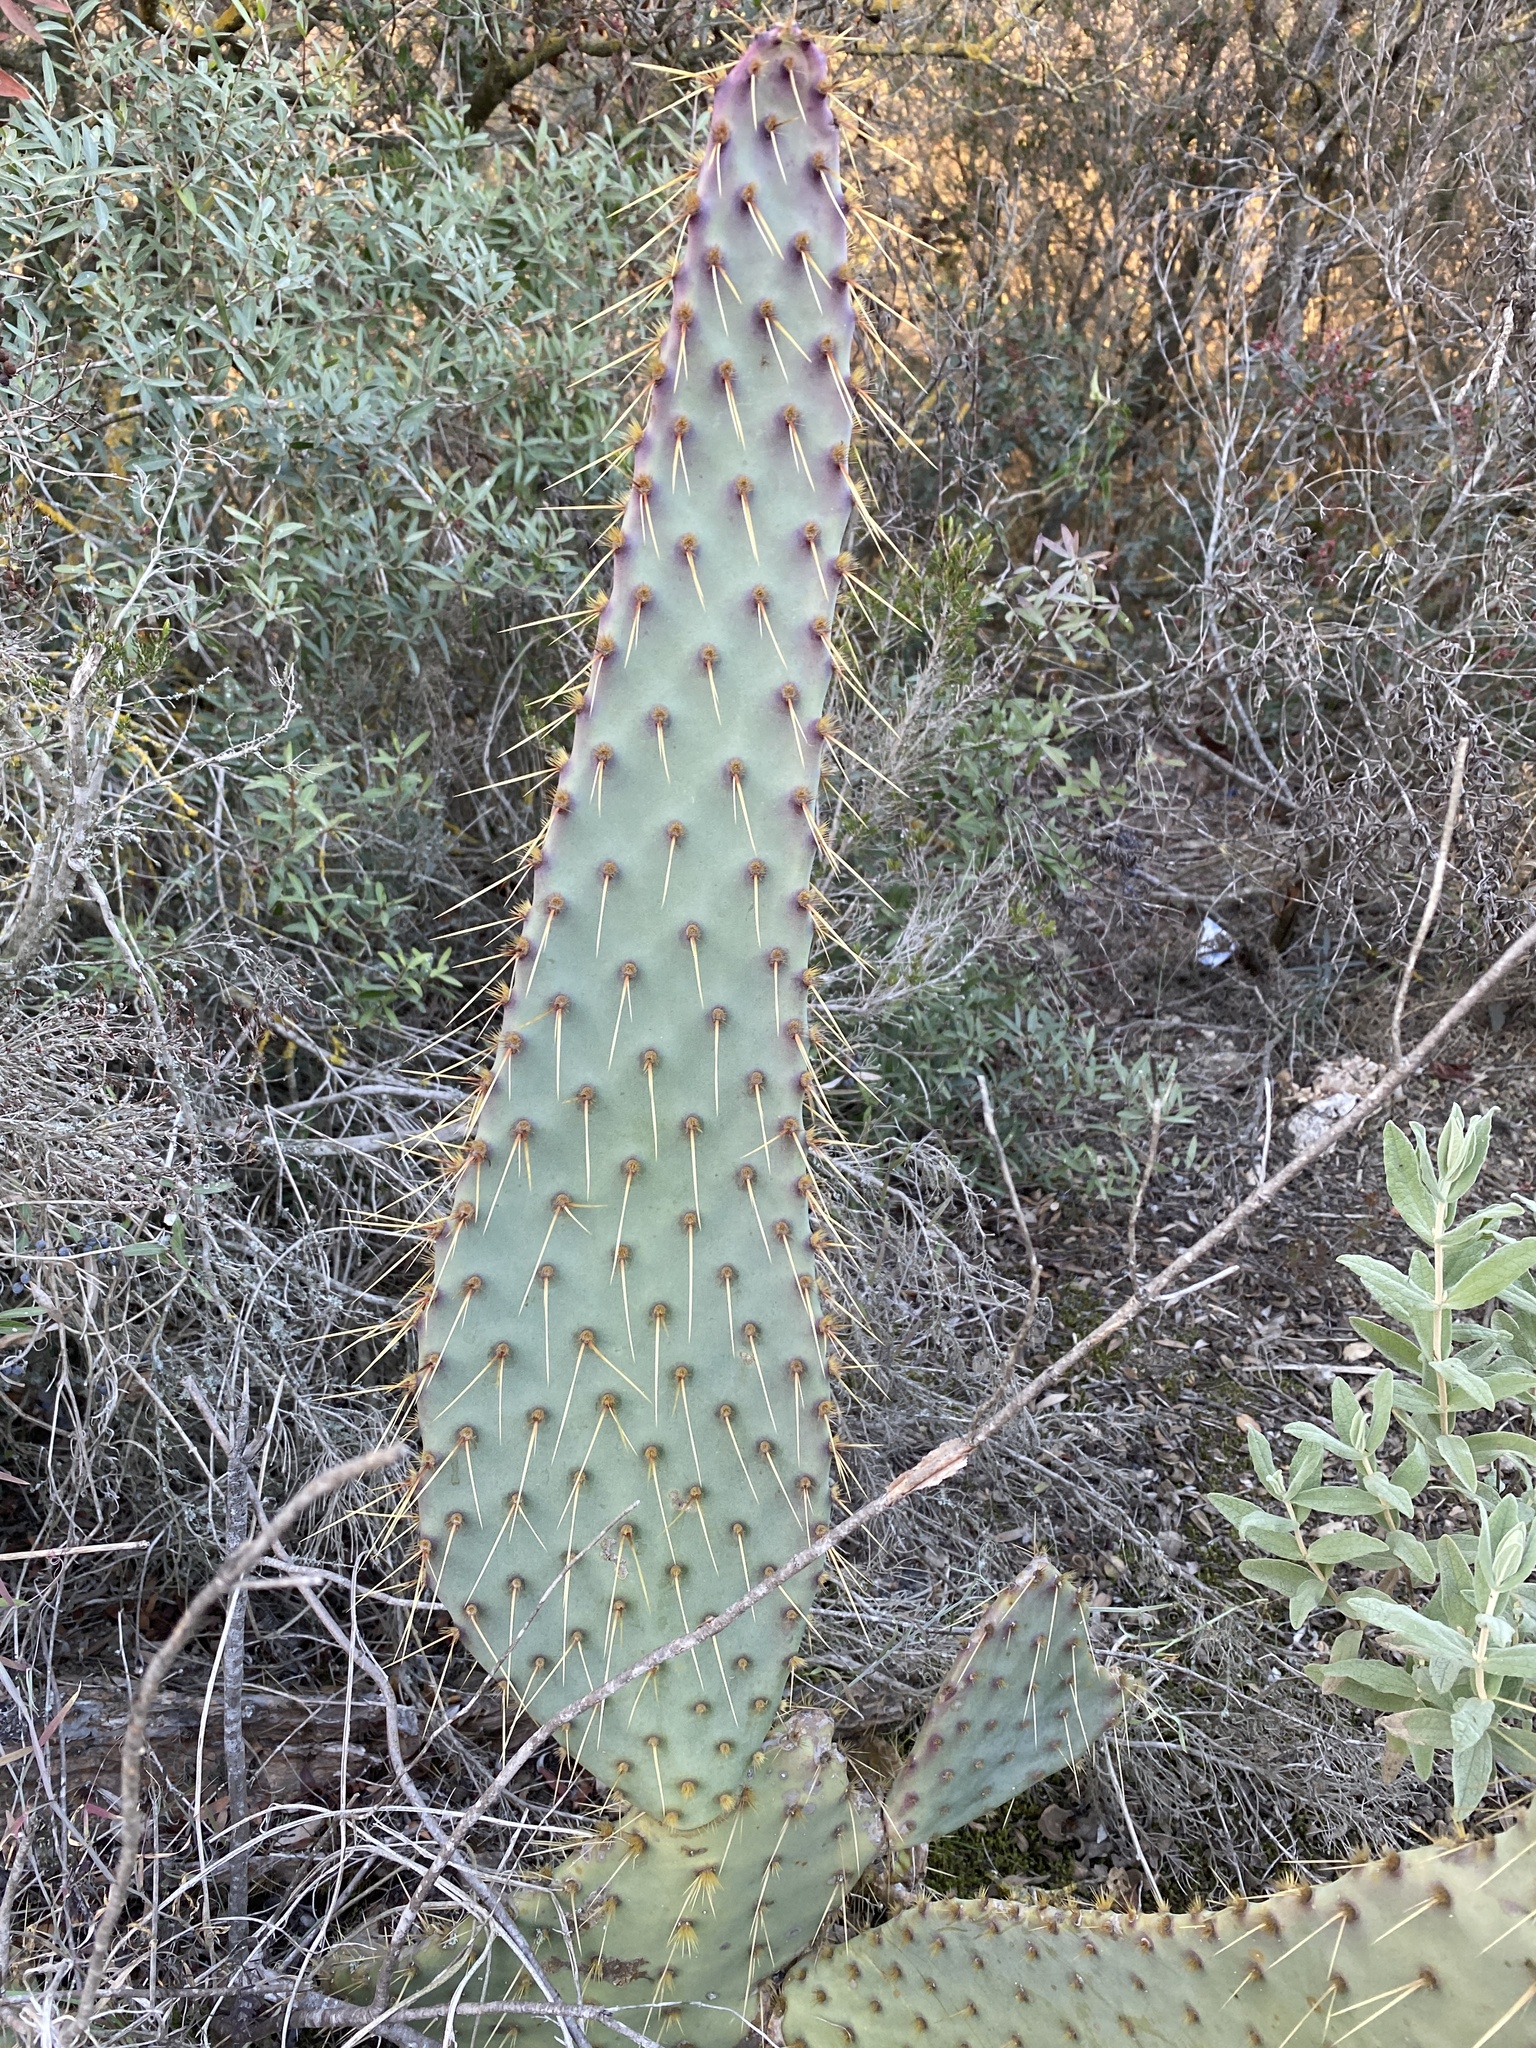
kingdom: Plantae
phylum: Tracheophyta
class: Magnoliopsida
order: Caryophyllales
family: Cactaceae
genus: Opuntia
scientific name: Opuntia engelmannii
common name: Cactus-apple
